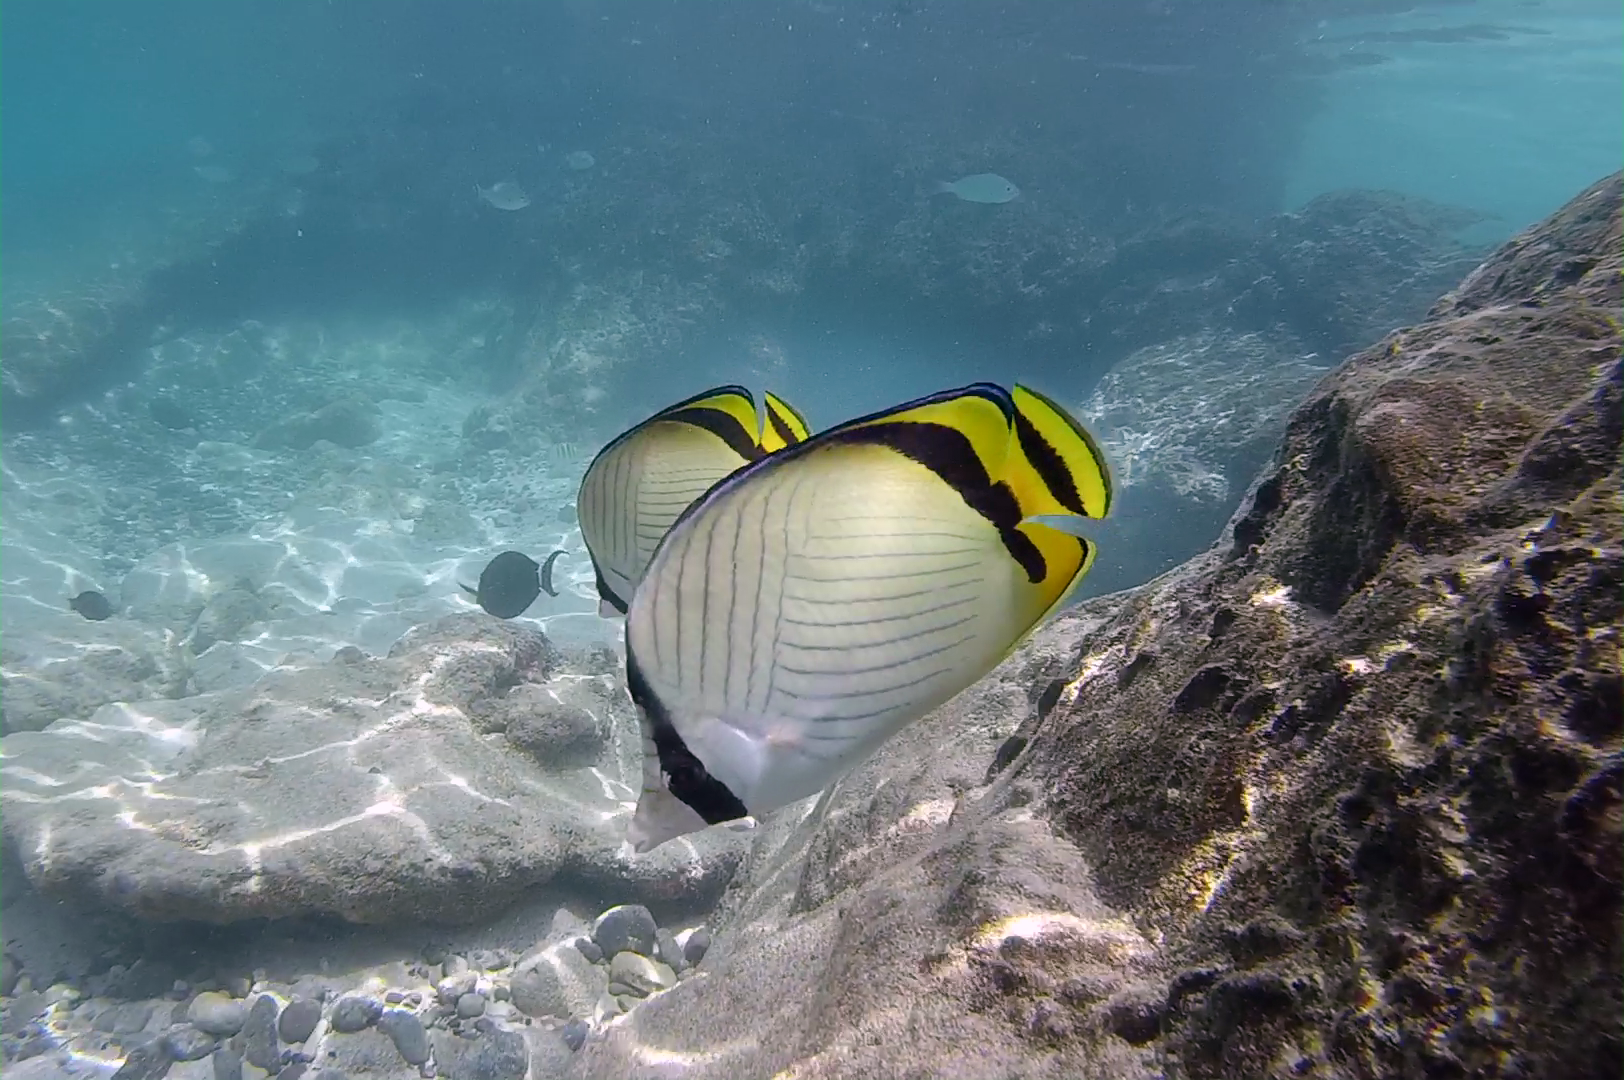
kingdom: Animalia
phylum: Chordata
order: Perciformes
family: Chaetodontidae
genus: Chaetodon
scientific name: Chaetodon vagabundus
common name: Vagabond butterflyfish
